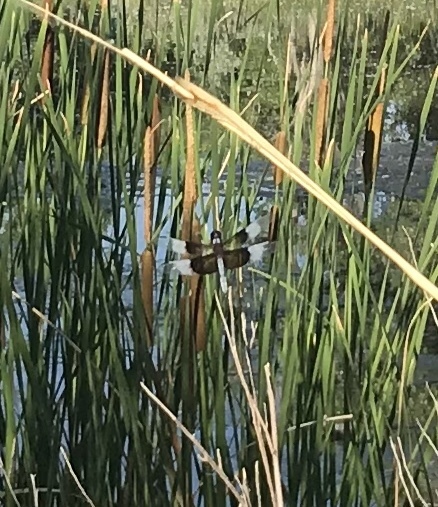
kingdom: Animalia
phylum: Arthropoda
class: Insecta
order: Odonata
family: Libellulidae
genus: Libellula
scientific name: Libellula luctuosa
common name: Widow skimmer
